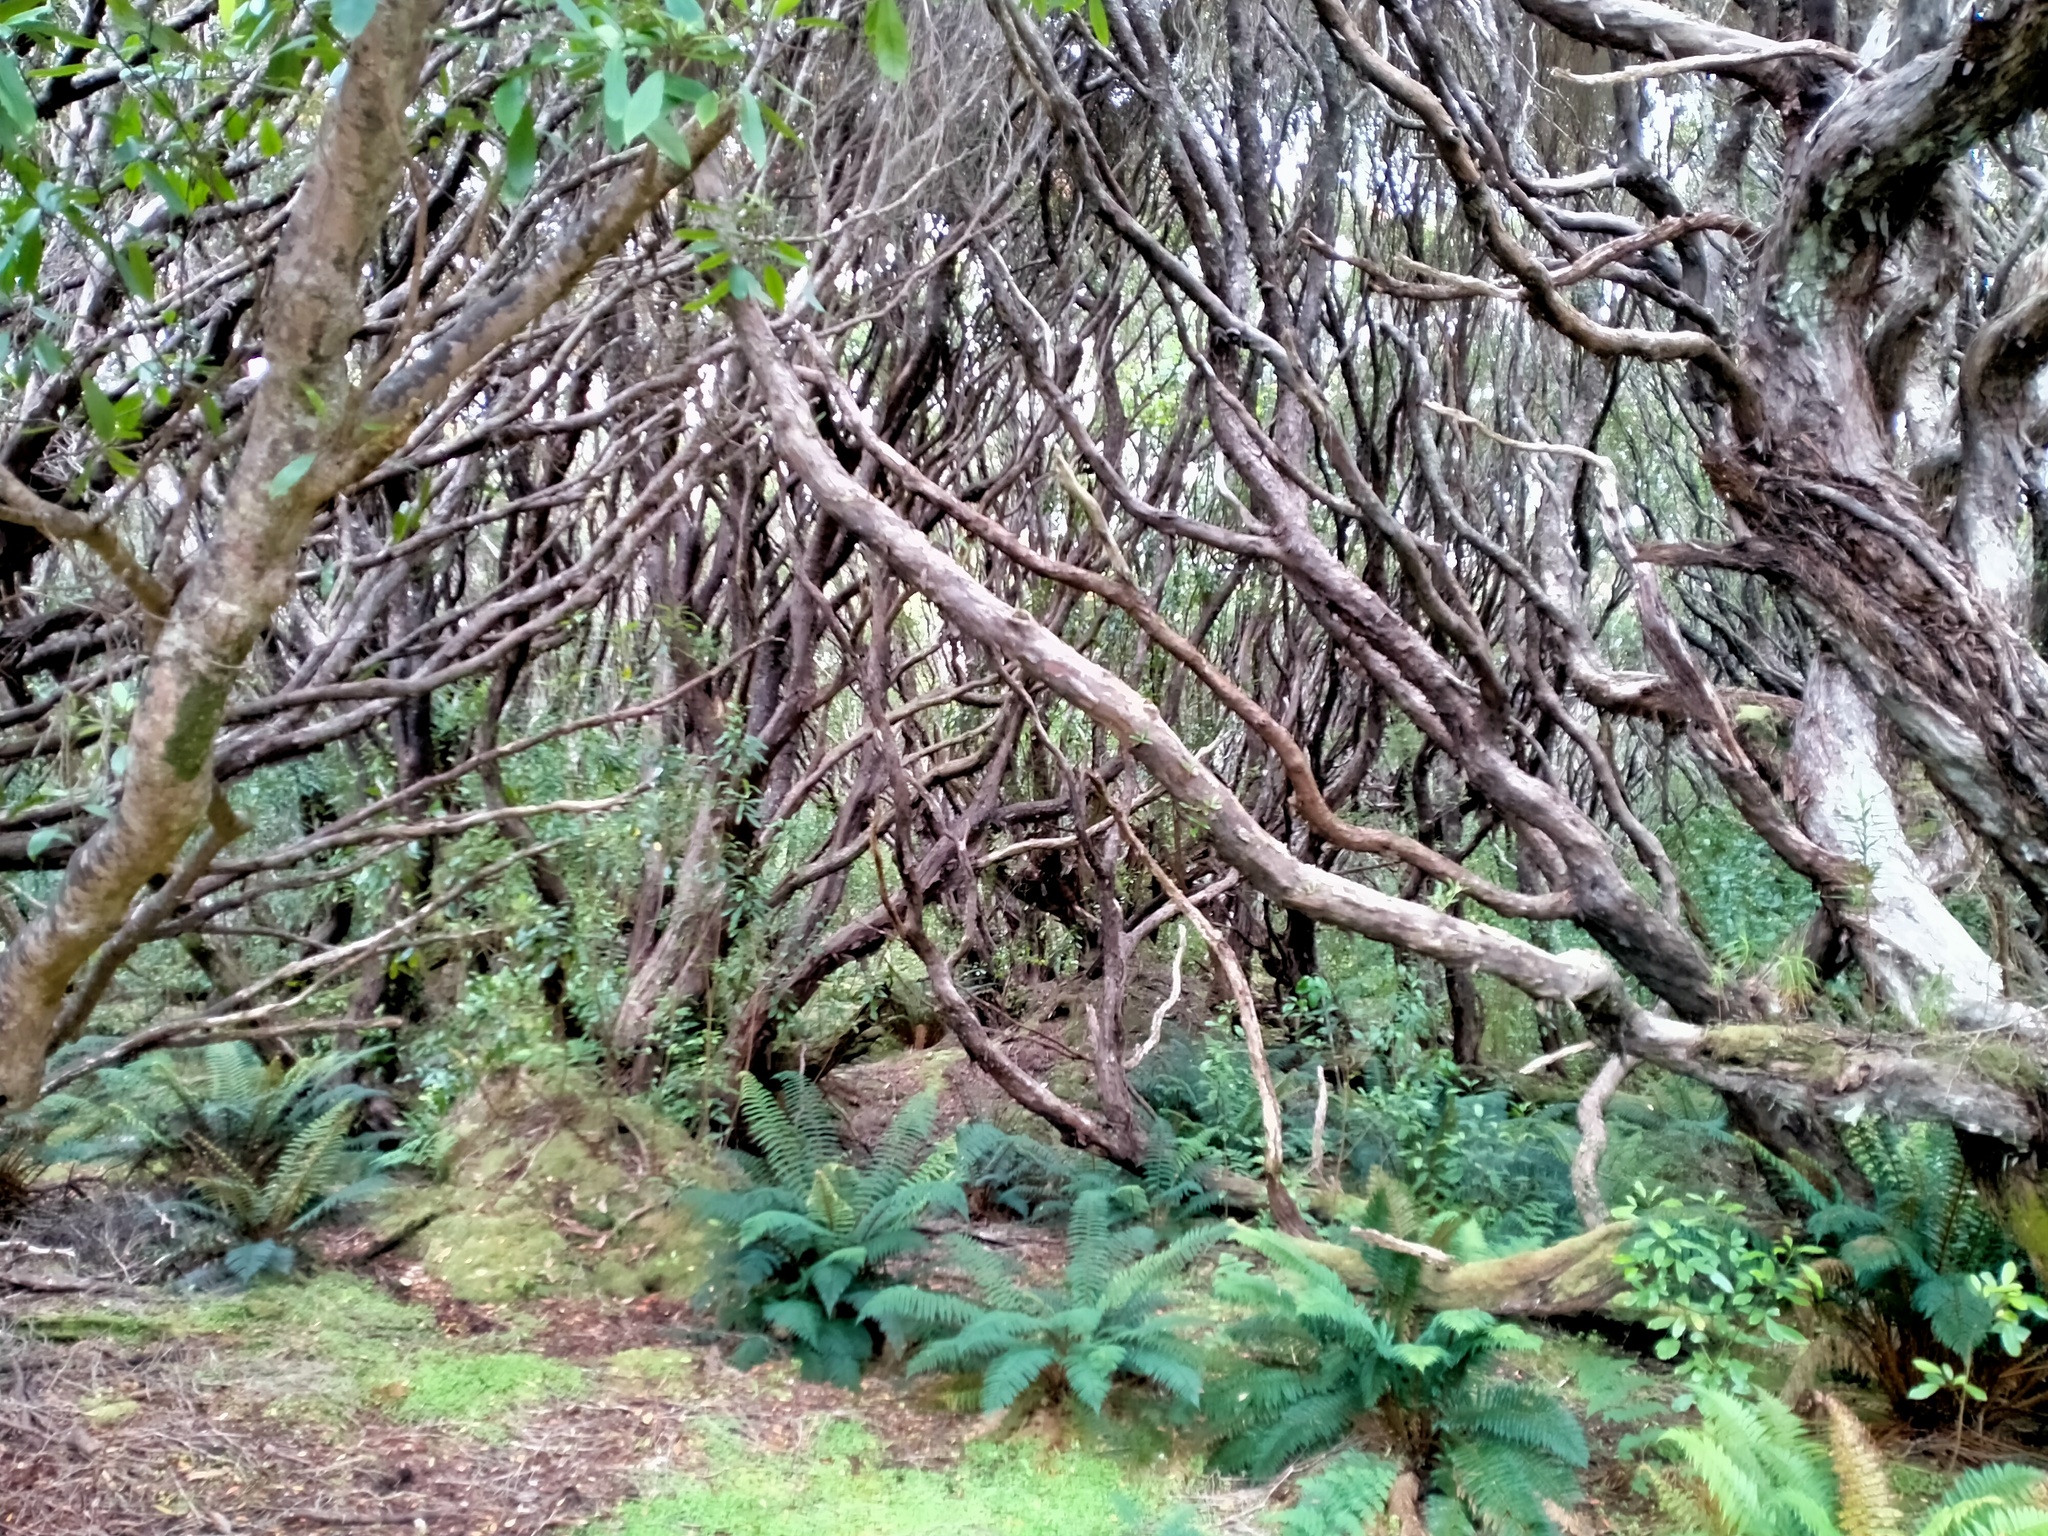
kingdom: Plantae
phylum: Tracheophyta
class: Magnoliopsida
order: Myrtales
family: Myrtaceae
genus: Metrosideros
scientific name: Metrosideros umbellata
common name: Southern rata
